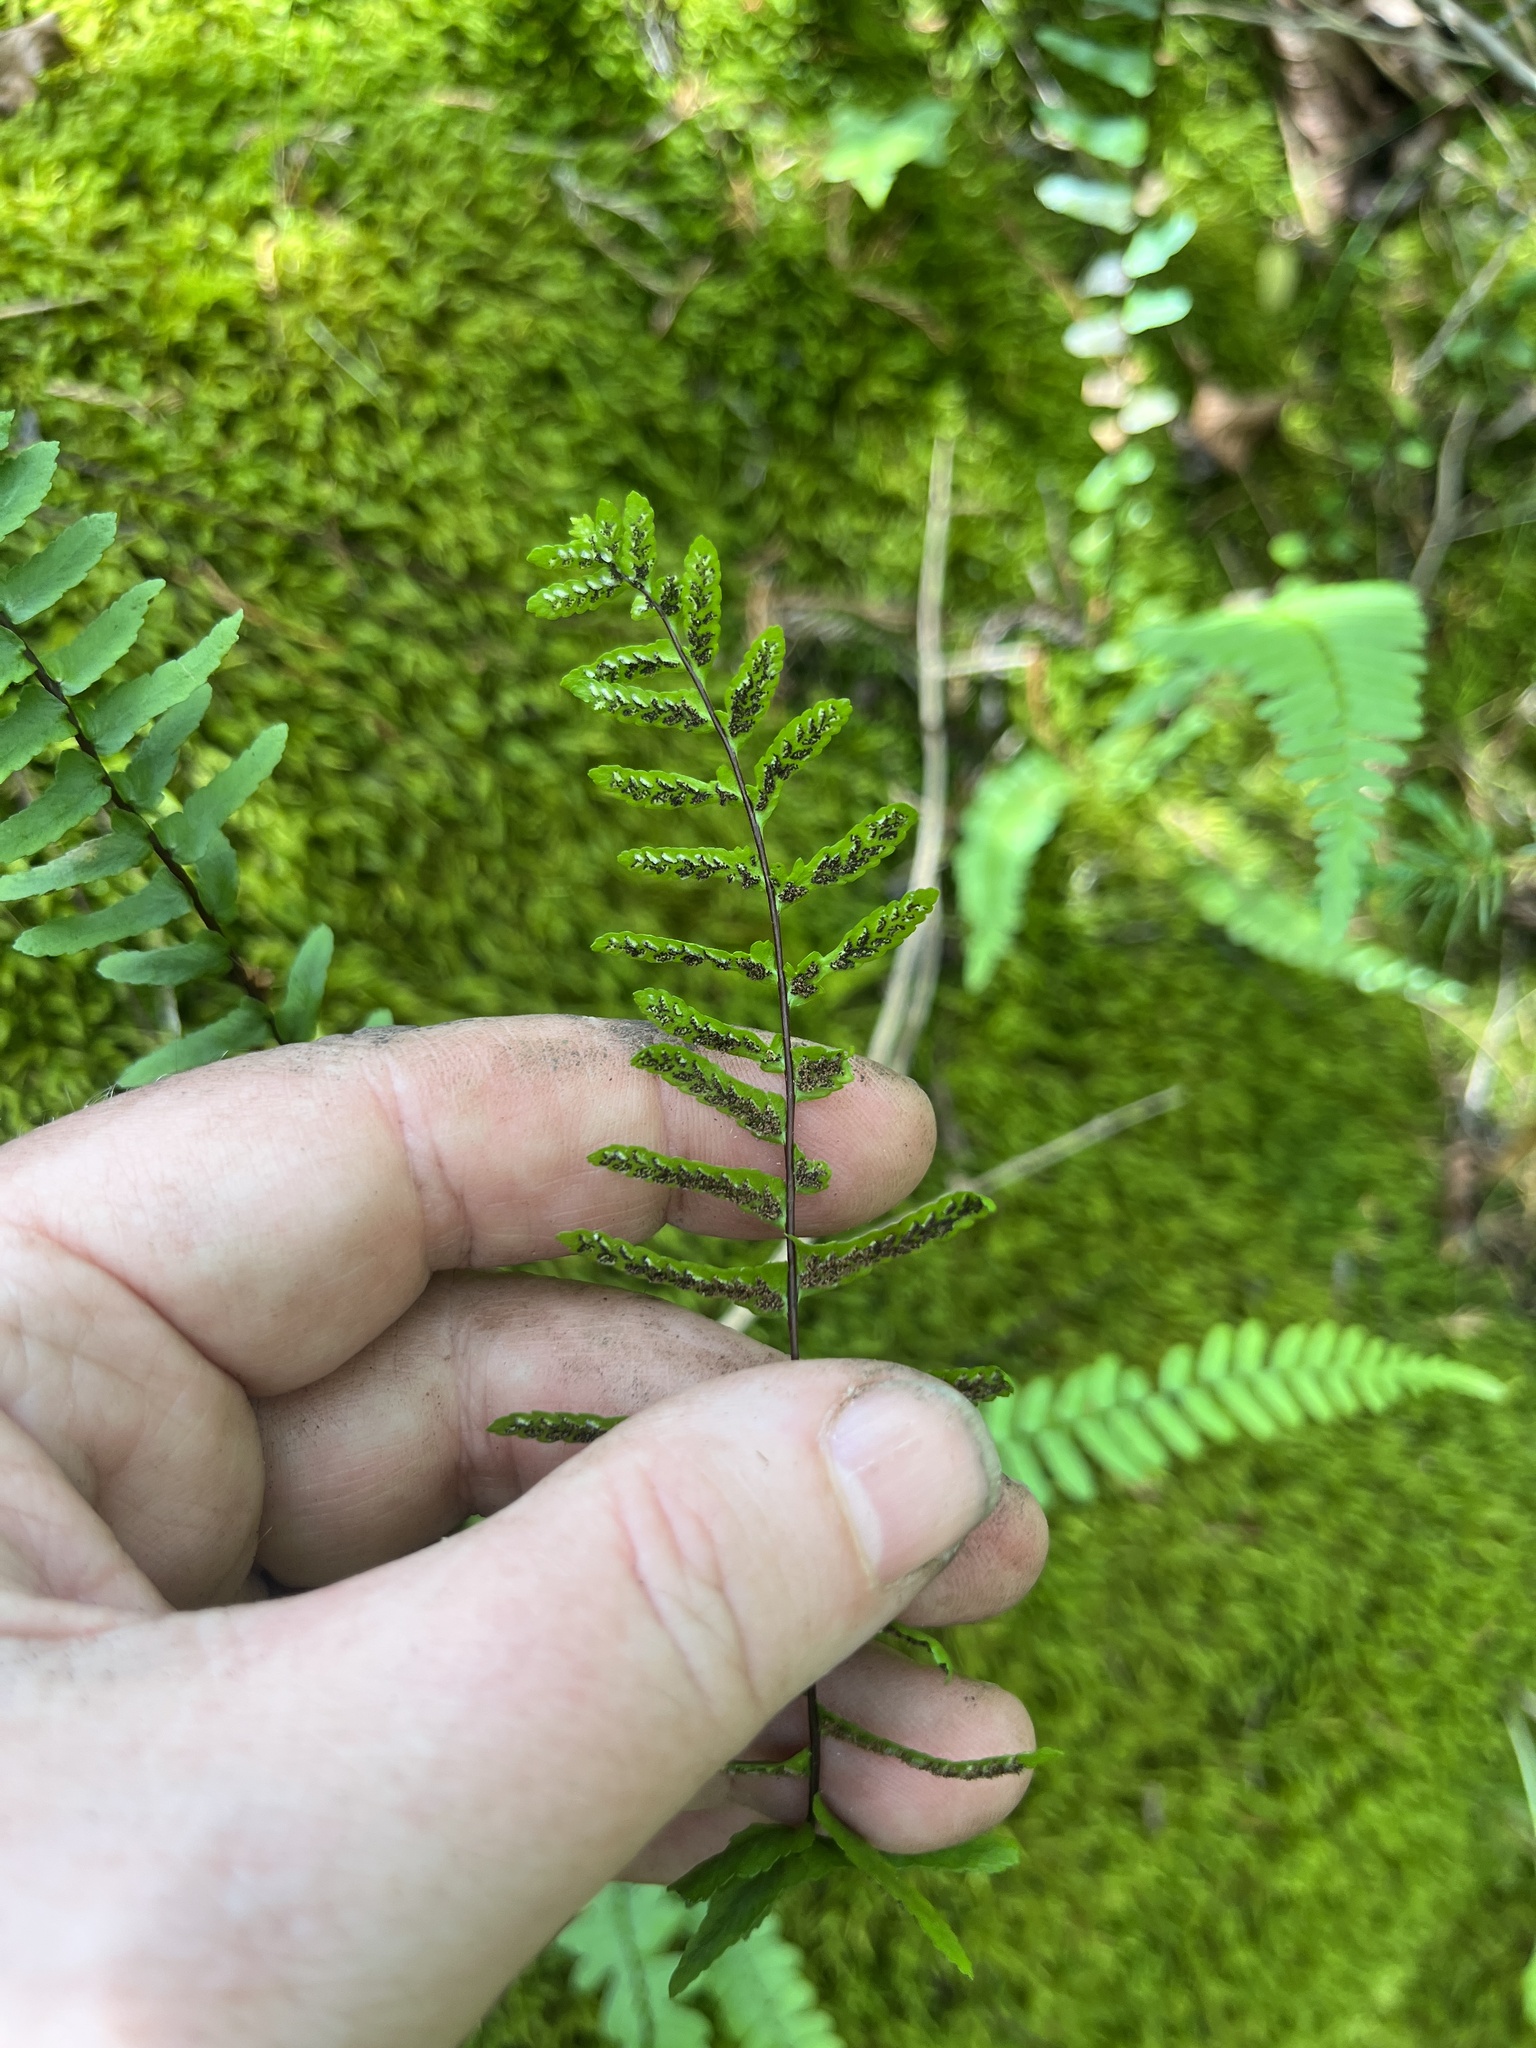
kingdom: Plantae
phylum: Tracheophyta
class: Polypodiopsida
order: Polypodiales
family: Aspleniaceae
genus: Asplenium
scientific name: Asplenium platyneuron
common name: Ebony spleenwort
